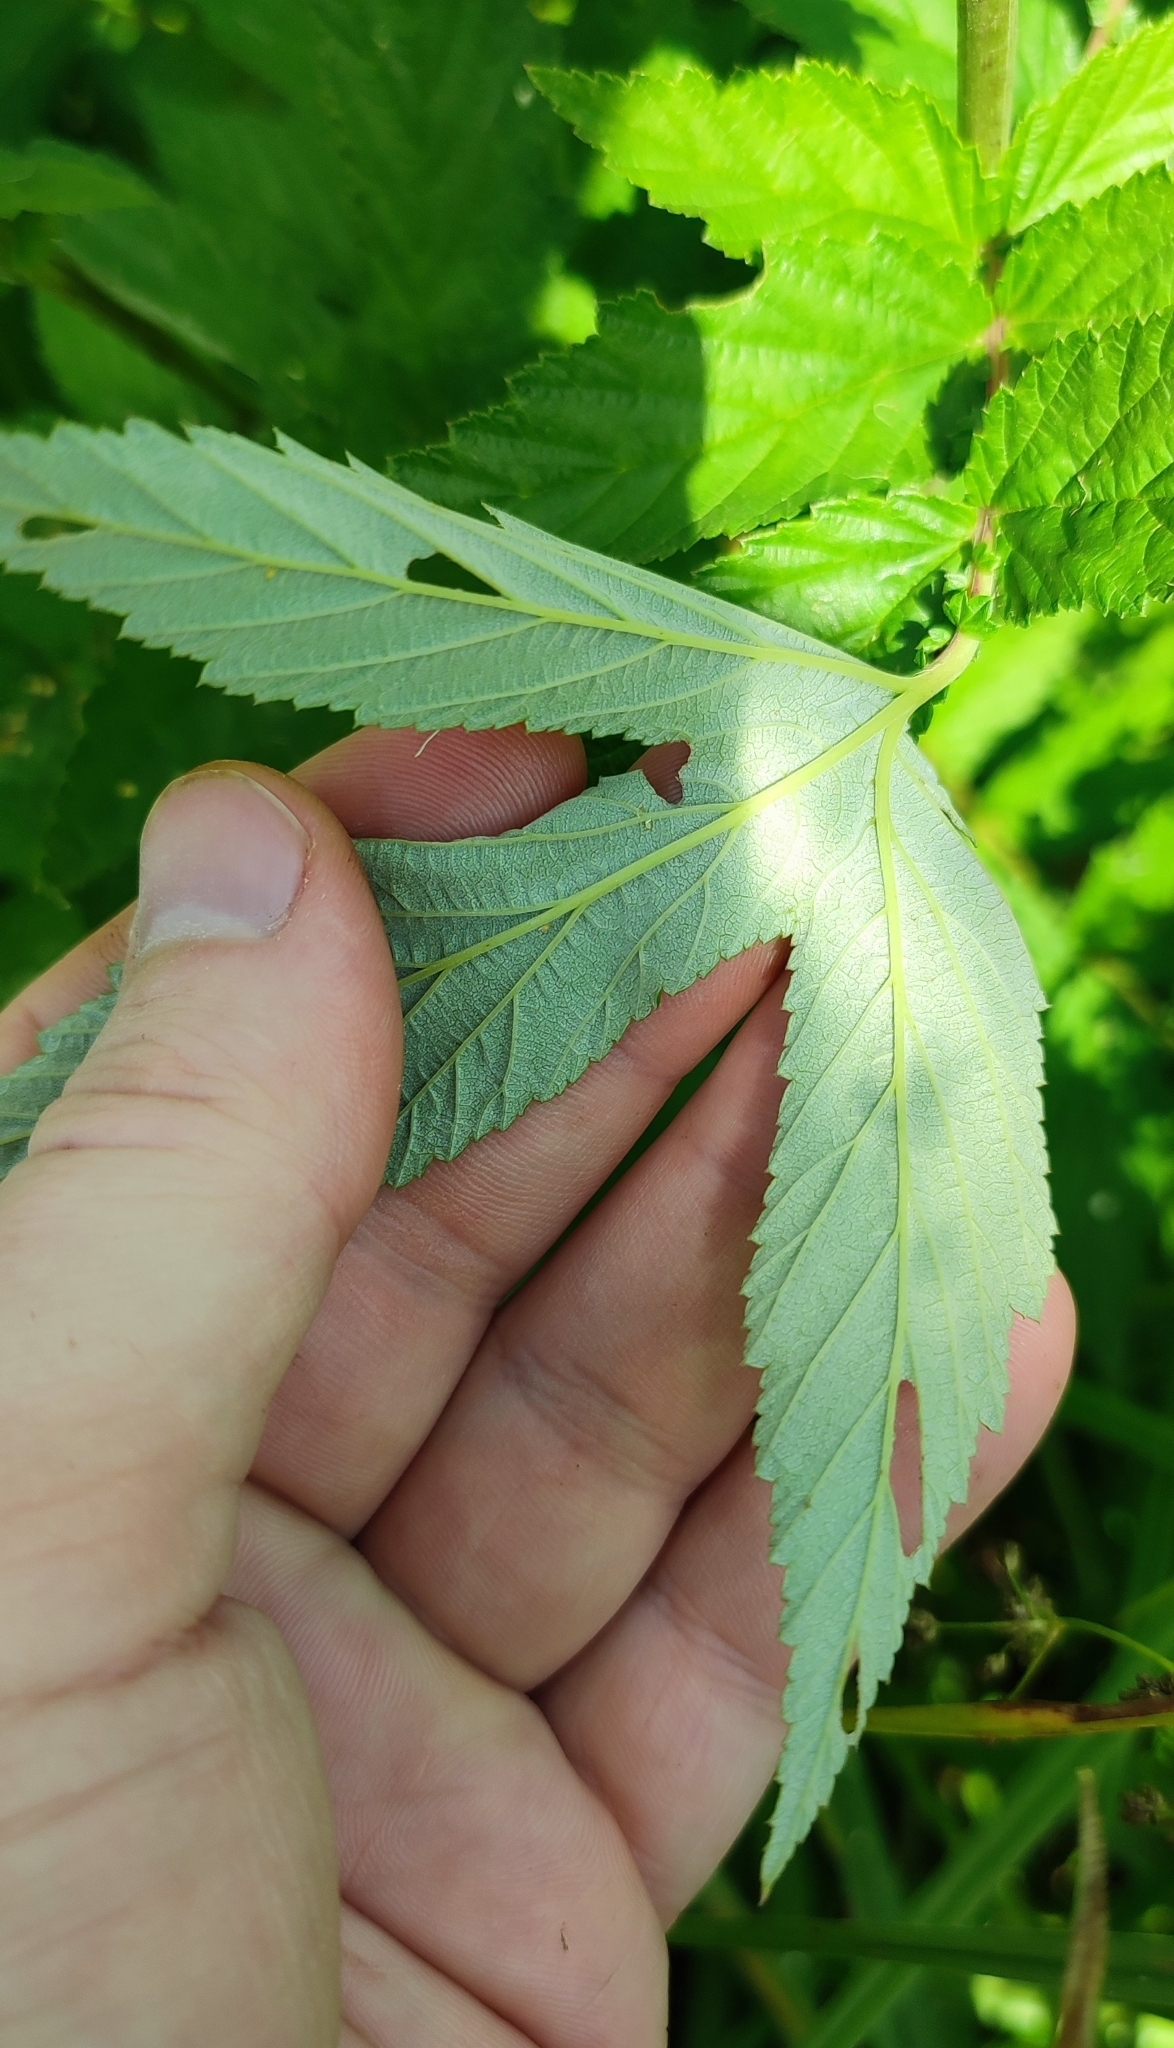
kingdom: Plantae
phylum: Tracheophyta
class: Magnoliopsida
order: Rosales
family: Rosaceae
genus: Filipendula
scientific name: Filipendula ulmaria
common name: Meadowsweet
